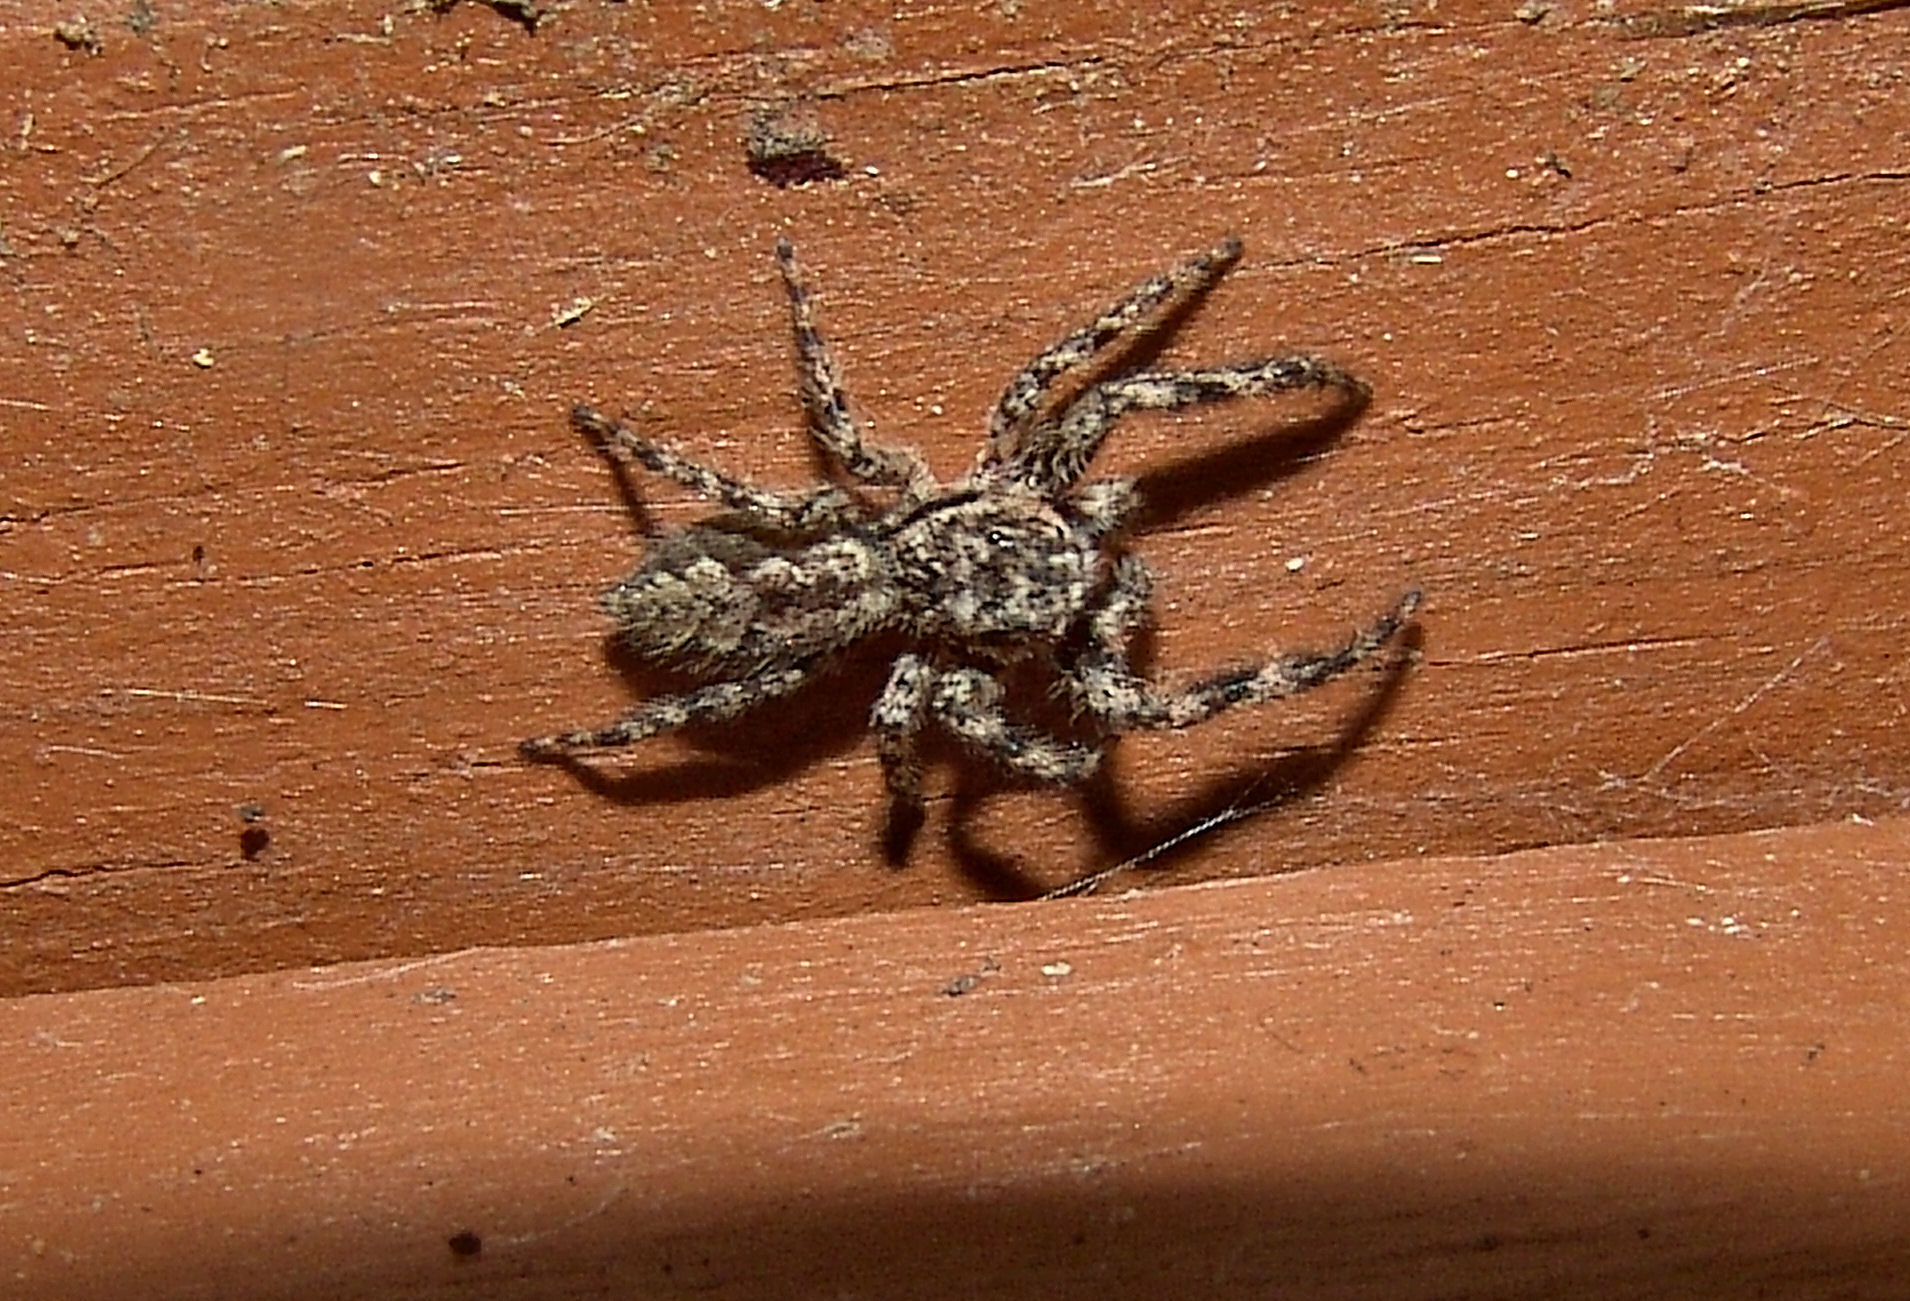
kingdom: Animalia
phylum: Arthropoda
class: Arachnida
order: Araneae
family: Salticidae
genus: Platycryptus
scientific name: Platycryptus undatus
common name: Tan jumping spider
